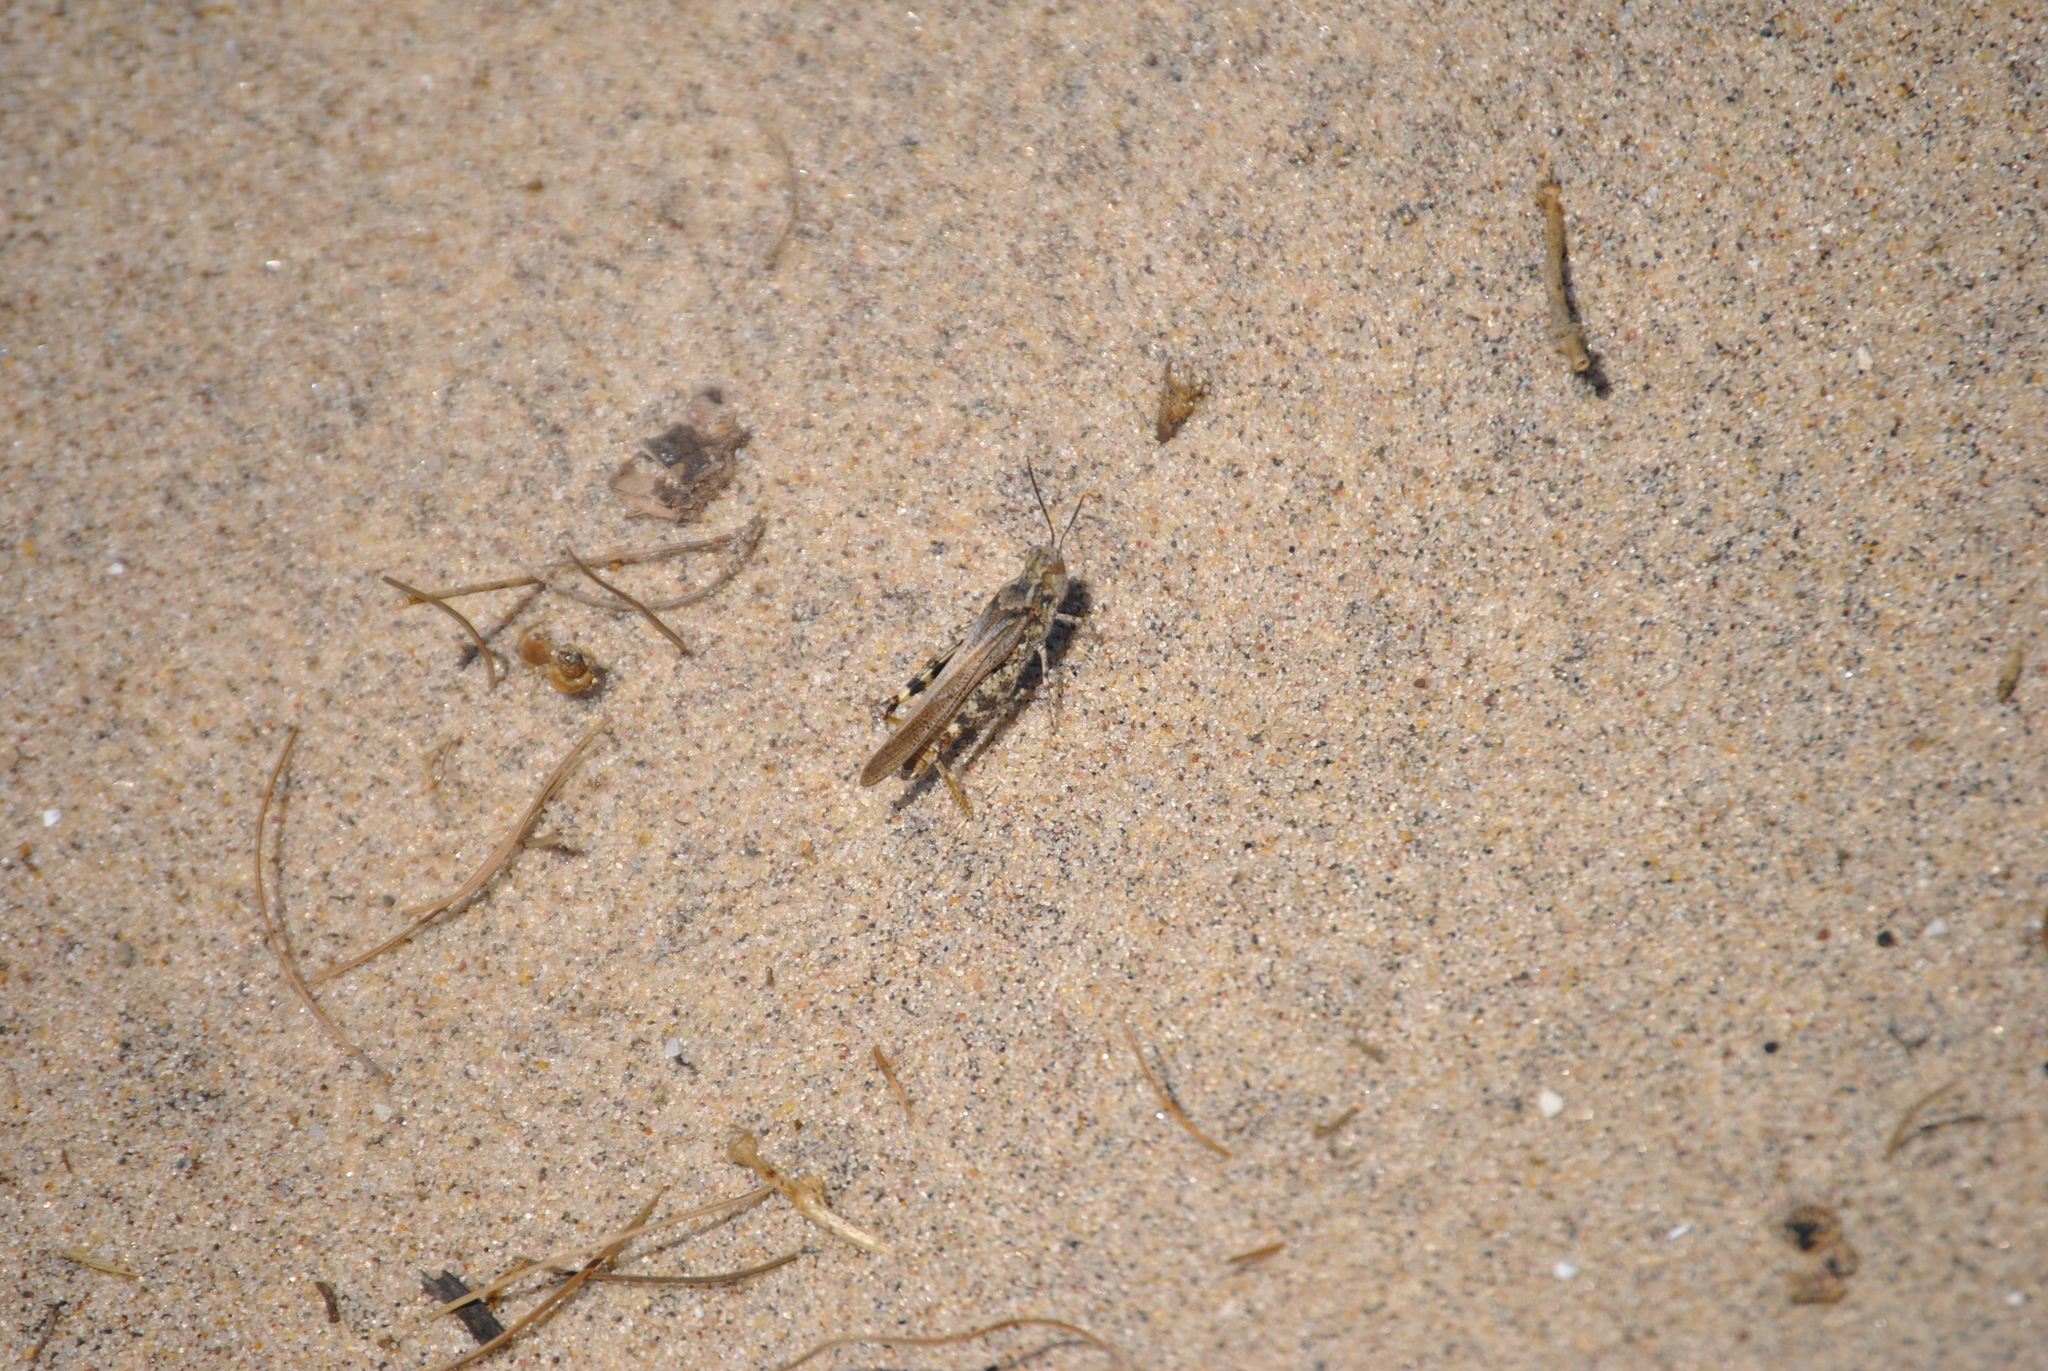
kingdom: Animalia
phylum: Arthropoda
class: Insecta
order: Orthoptera
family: Acrididae
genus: Trimerotropis
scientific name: Trimerotropis huroniana
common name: Lake huron locust
